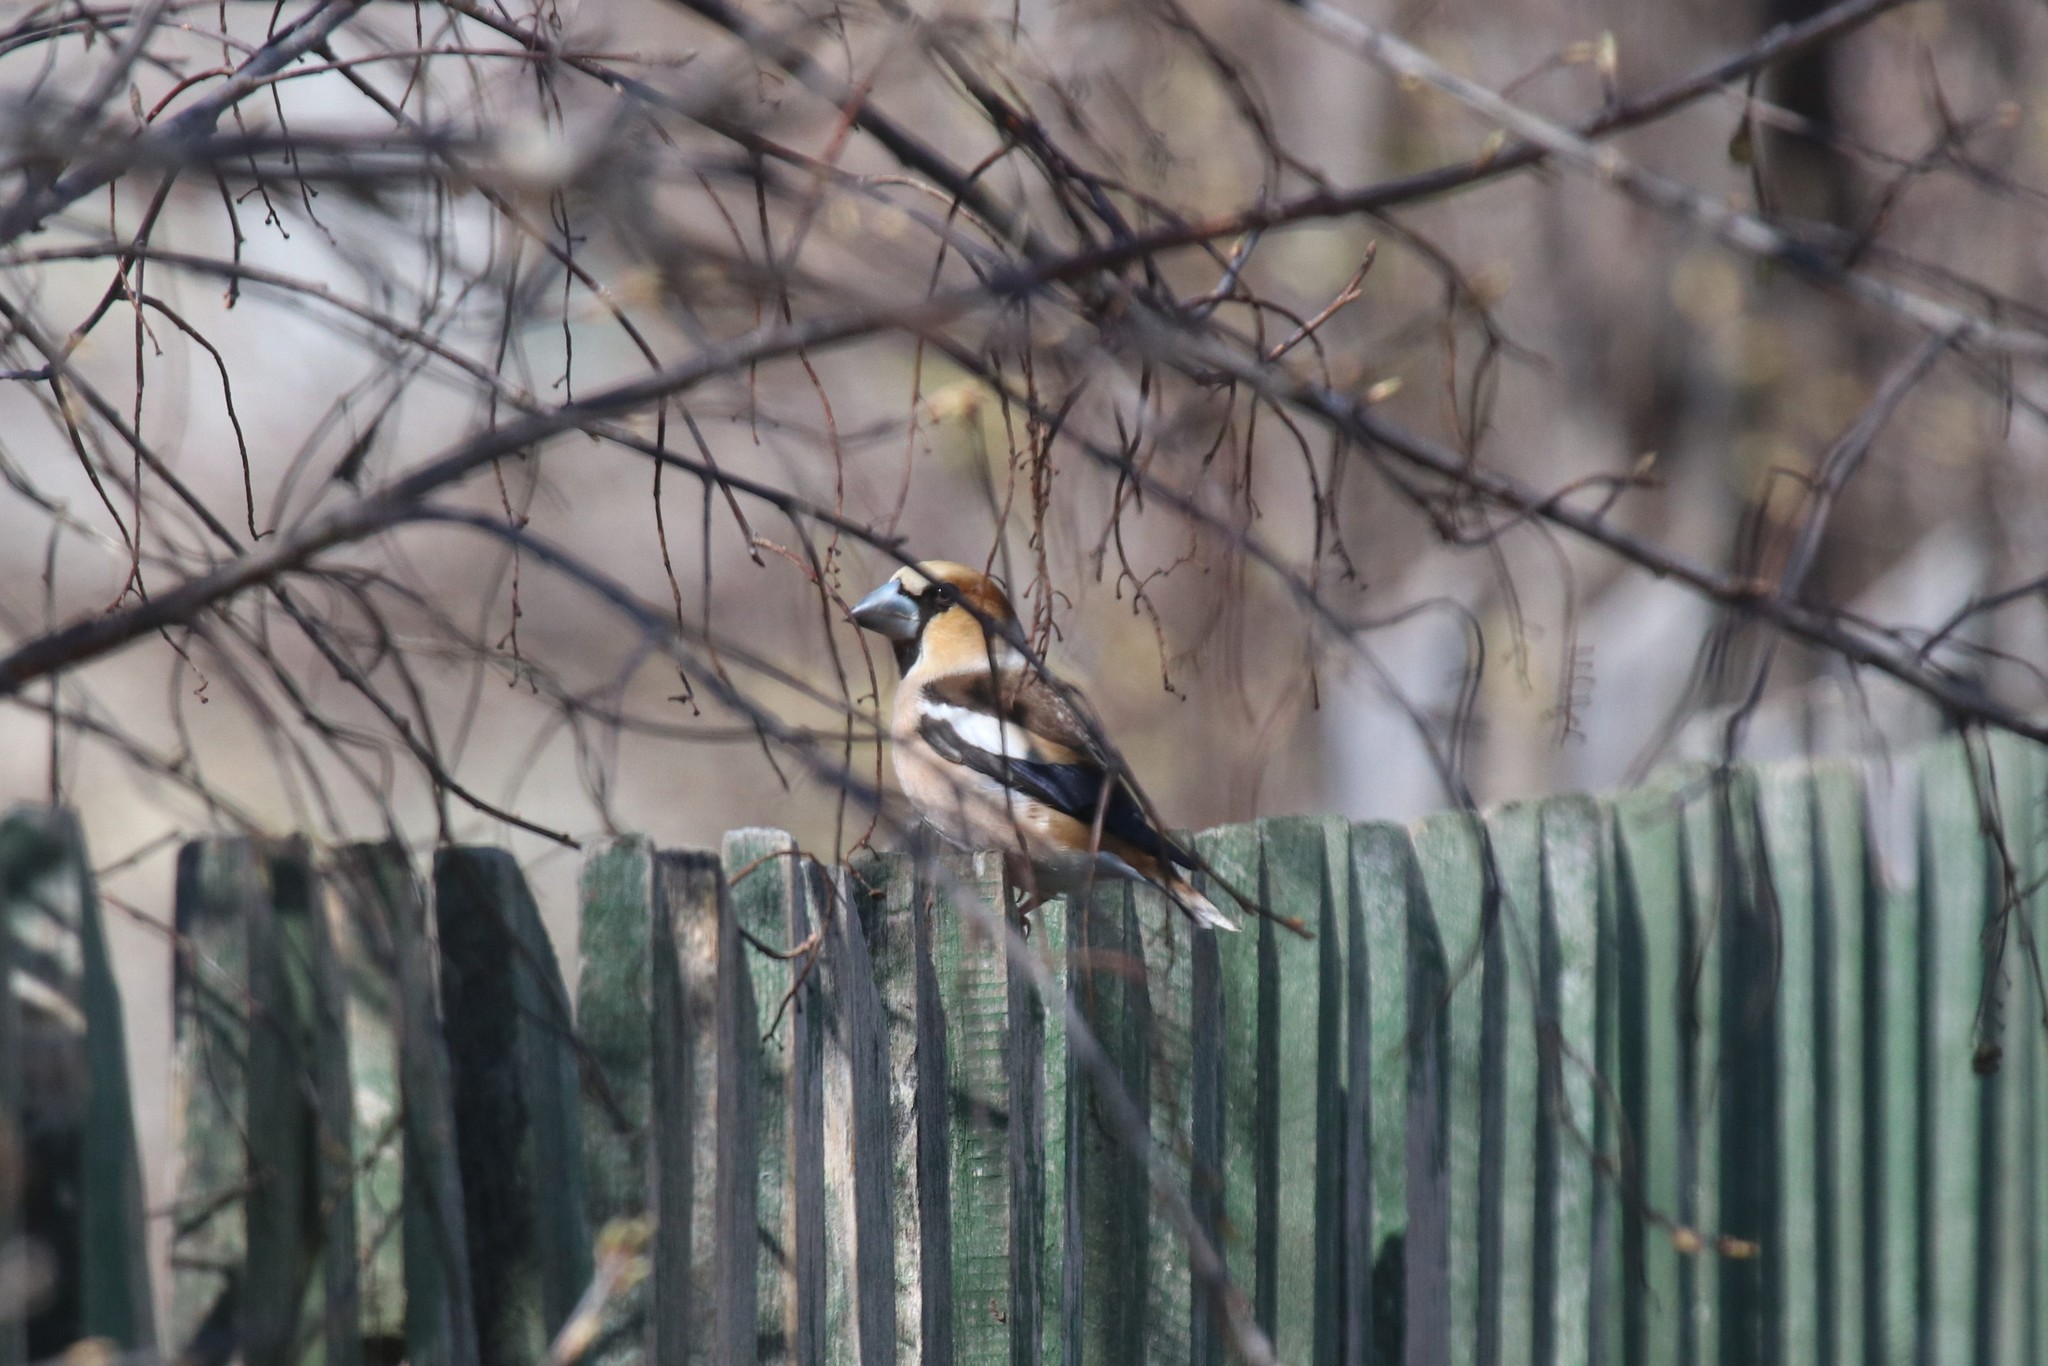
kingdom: Animalia
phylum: Chordata
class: Aves
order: Passeriformes
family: Fringillidae
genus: Coccothraustes
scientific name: Coccothraustes coccothraustes
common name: Hawfinch
